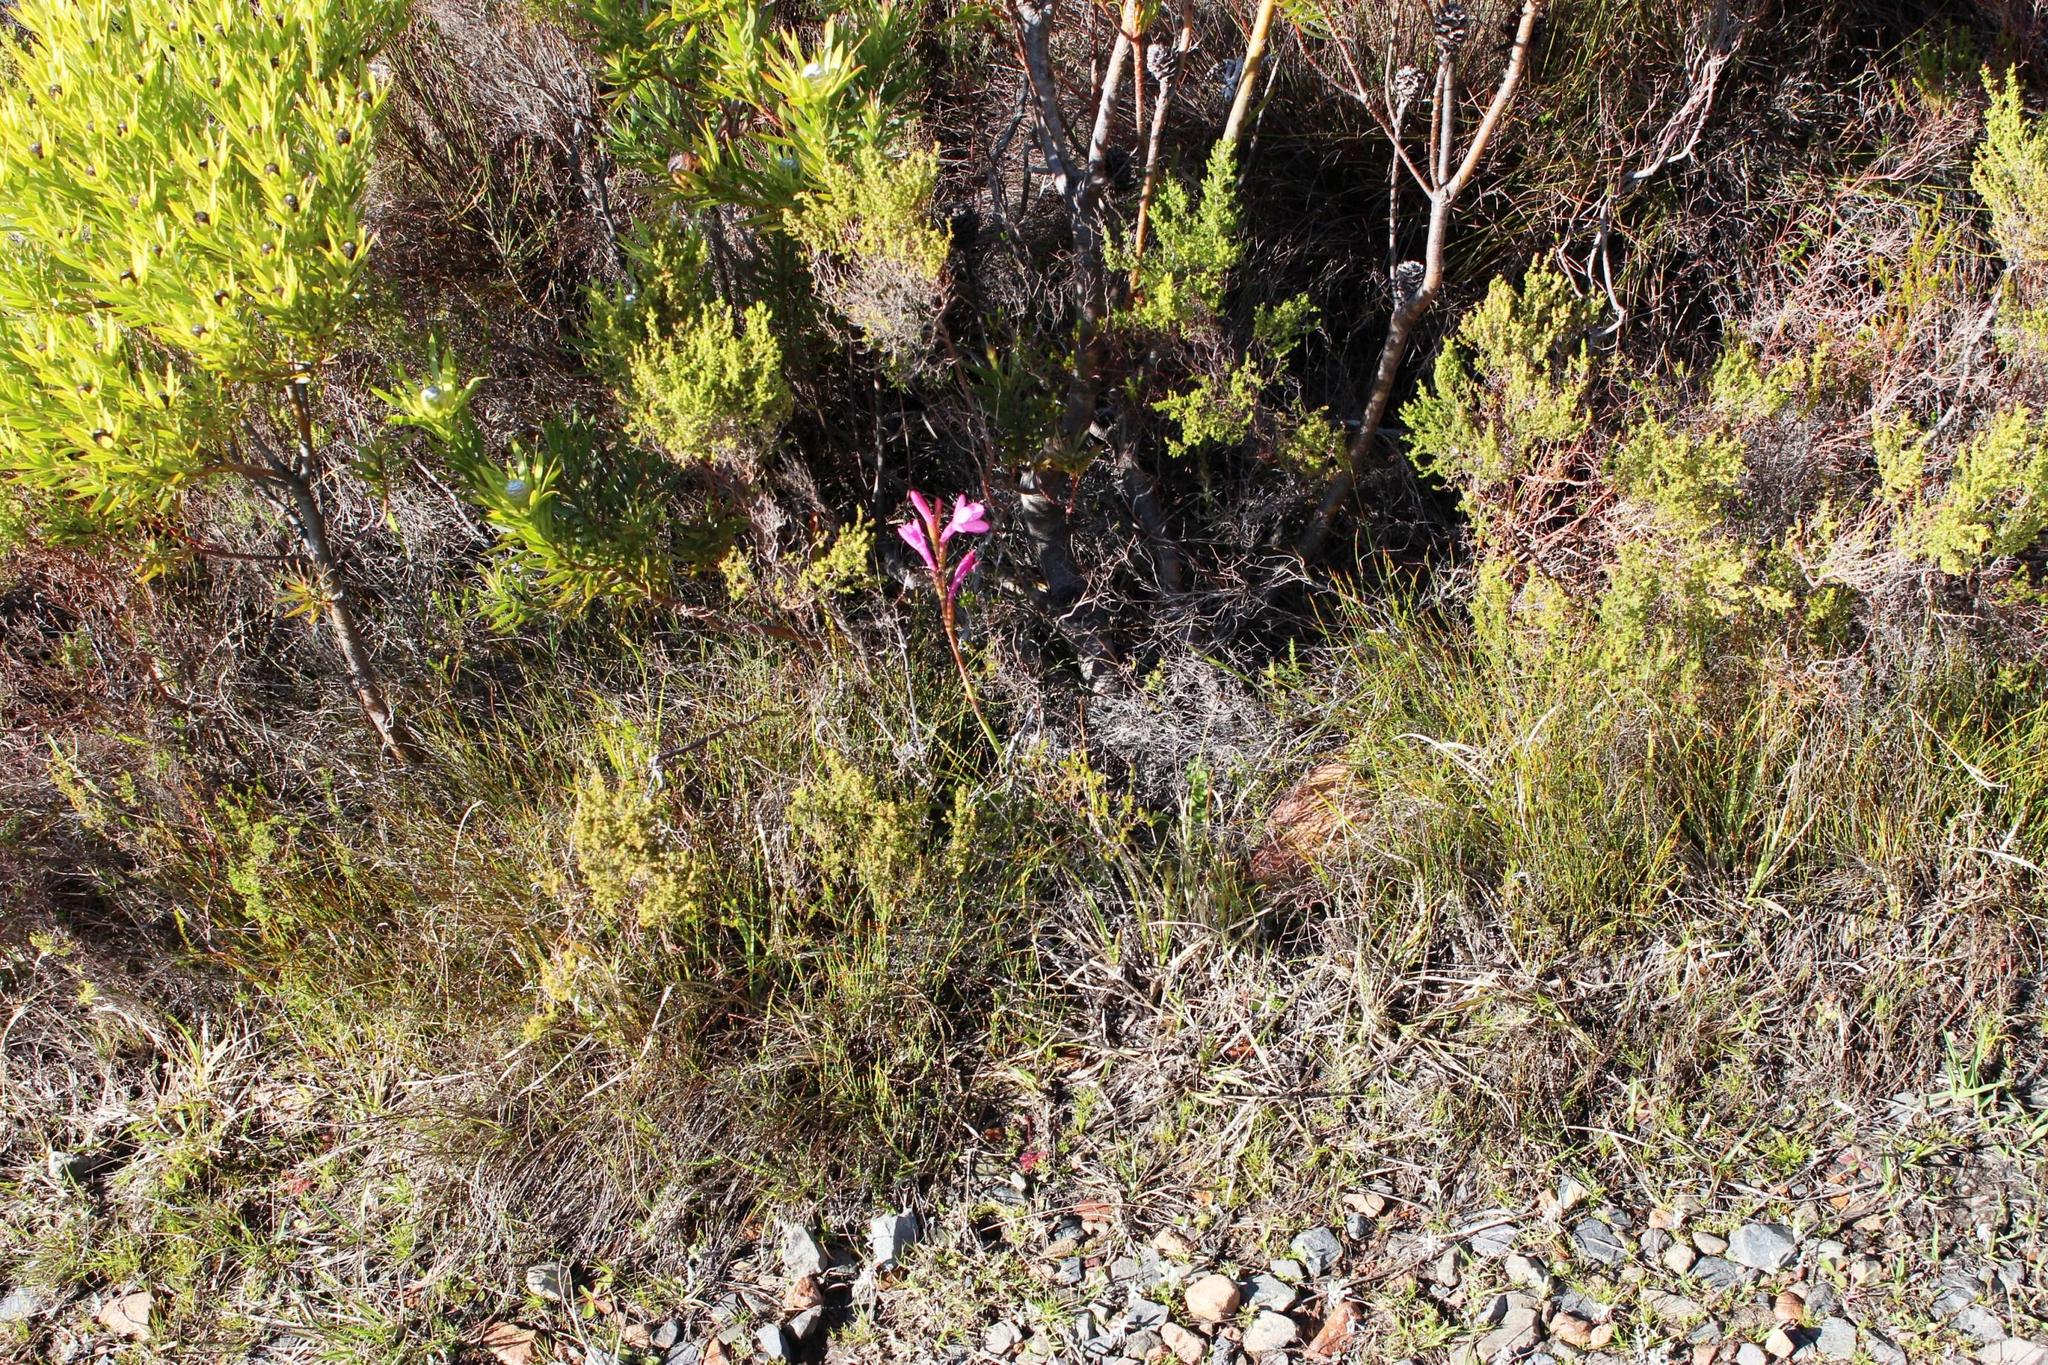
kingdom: Plantae
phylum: Tracheophyta
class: Liliopsida
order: Asparagales
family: Iridaceae
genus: Watsonia
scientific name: Watsonia coccinea
